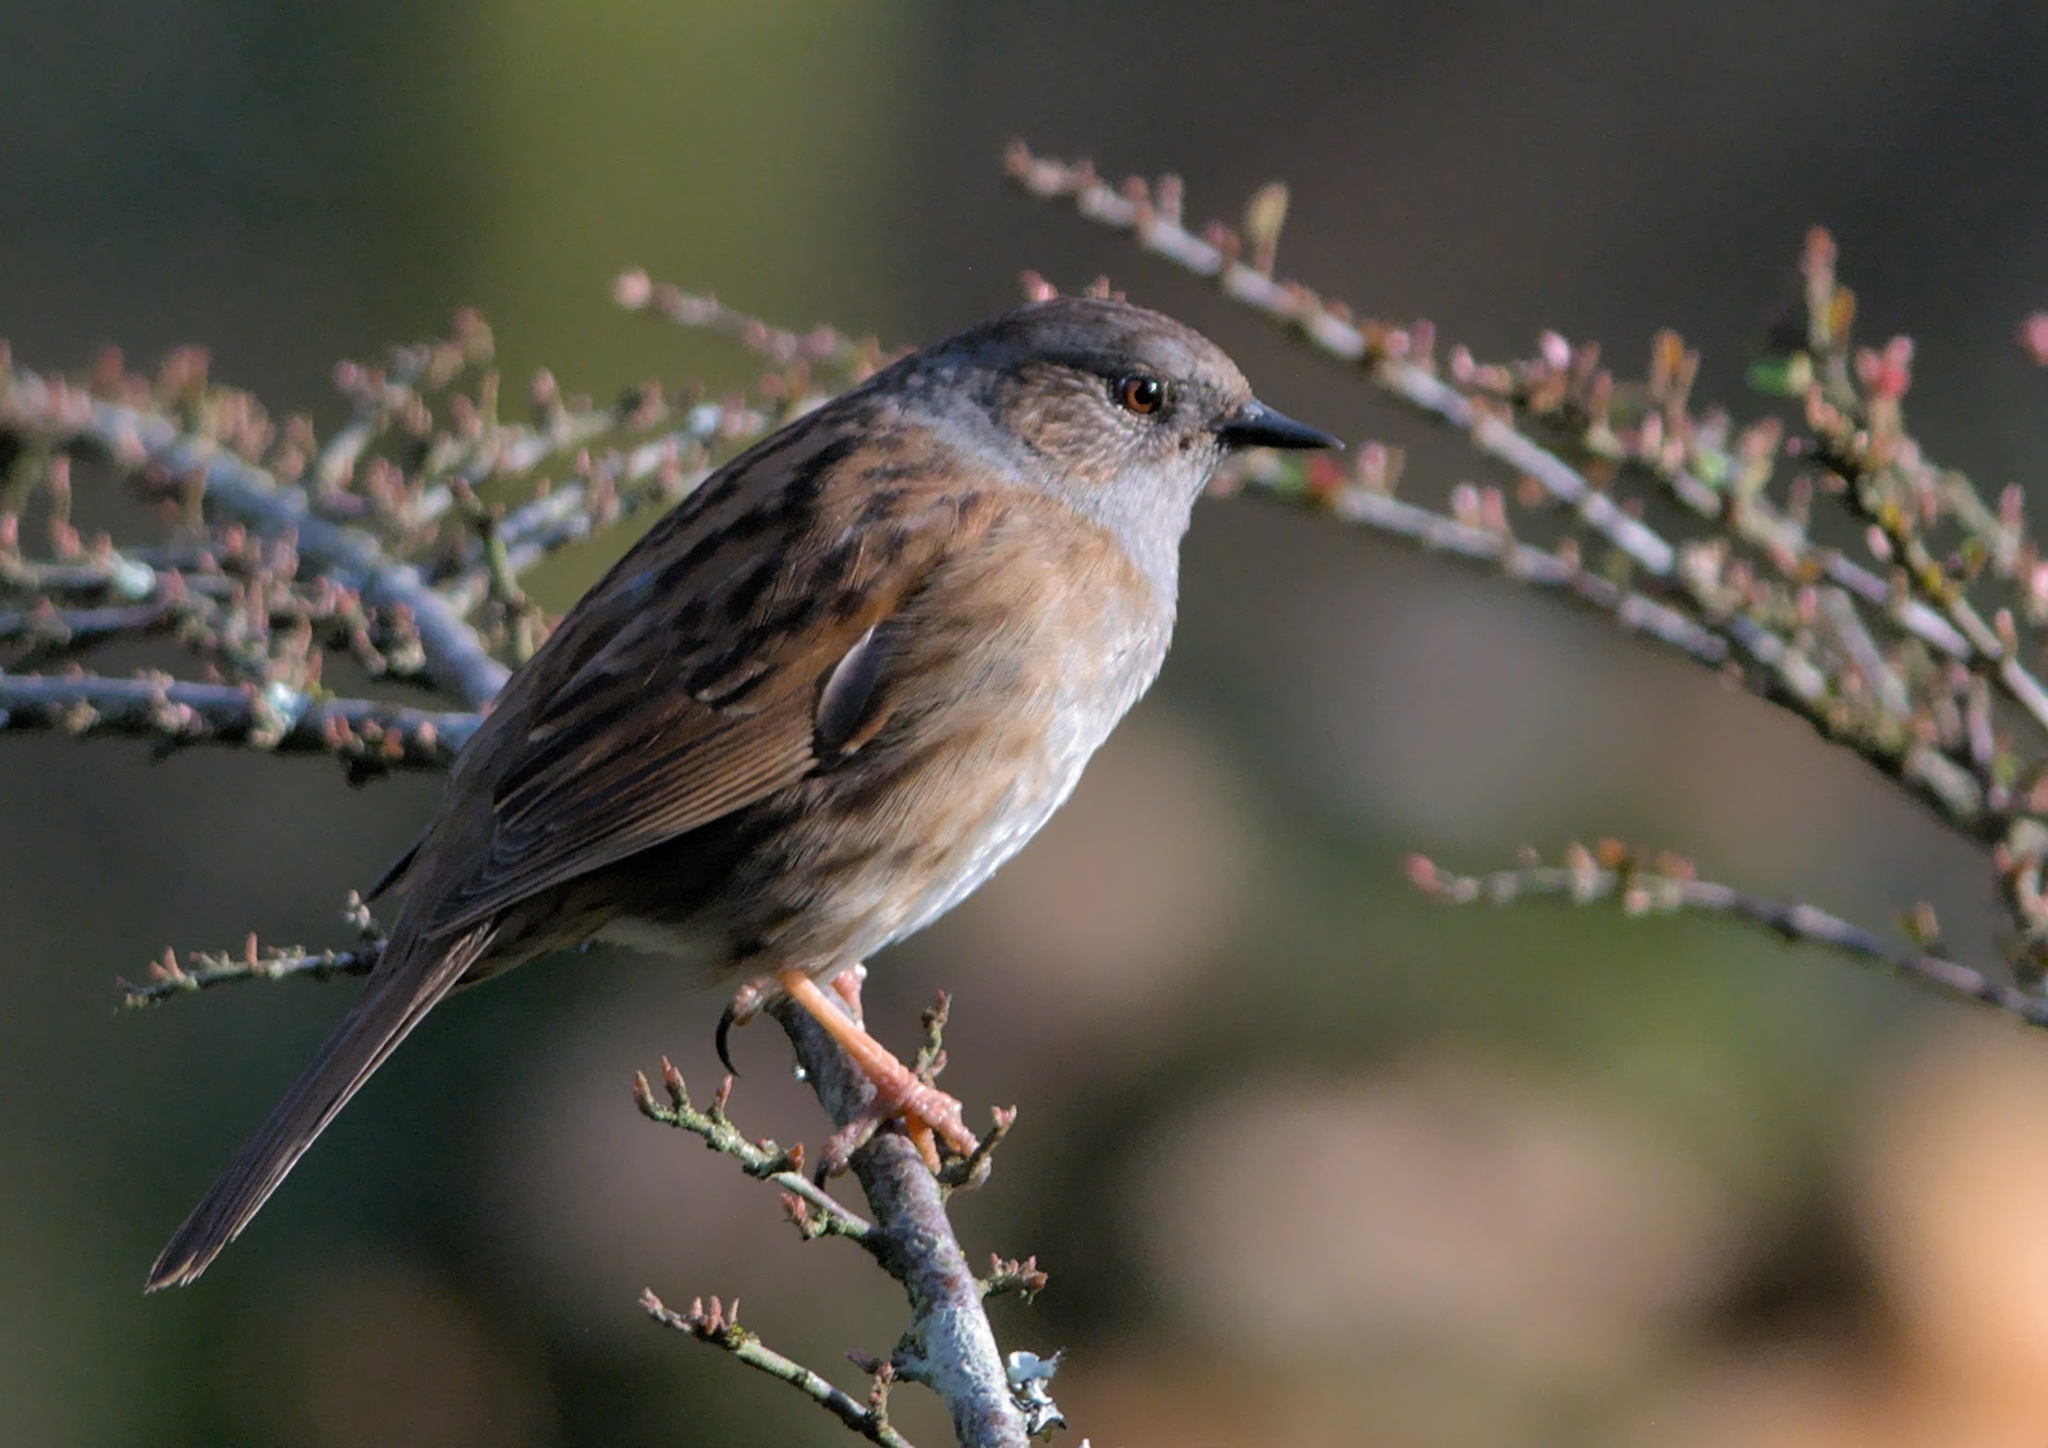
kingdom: Animalia
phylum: Chordata
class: Aves
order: Passeriformes
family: Prunellidae
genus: Prunella
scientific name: Prunella modularis
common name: Dunnock
